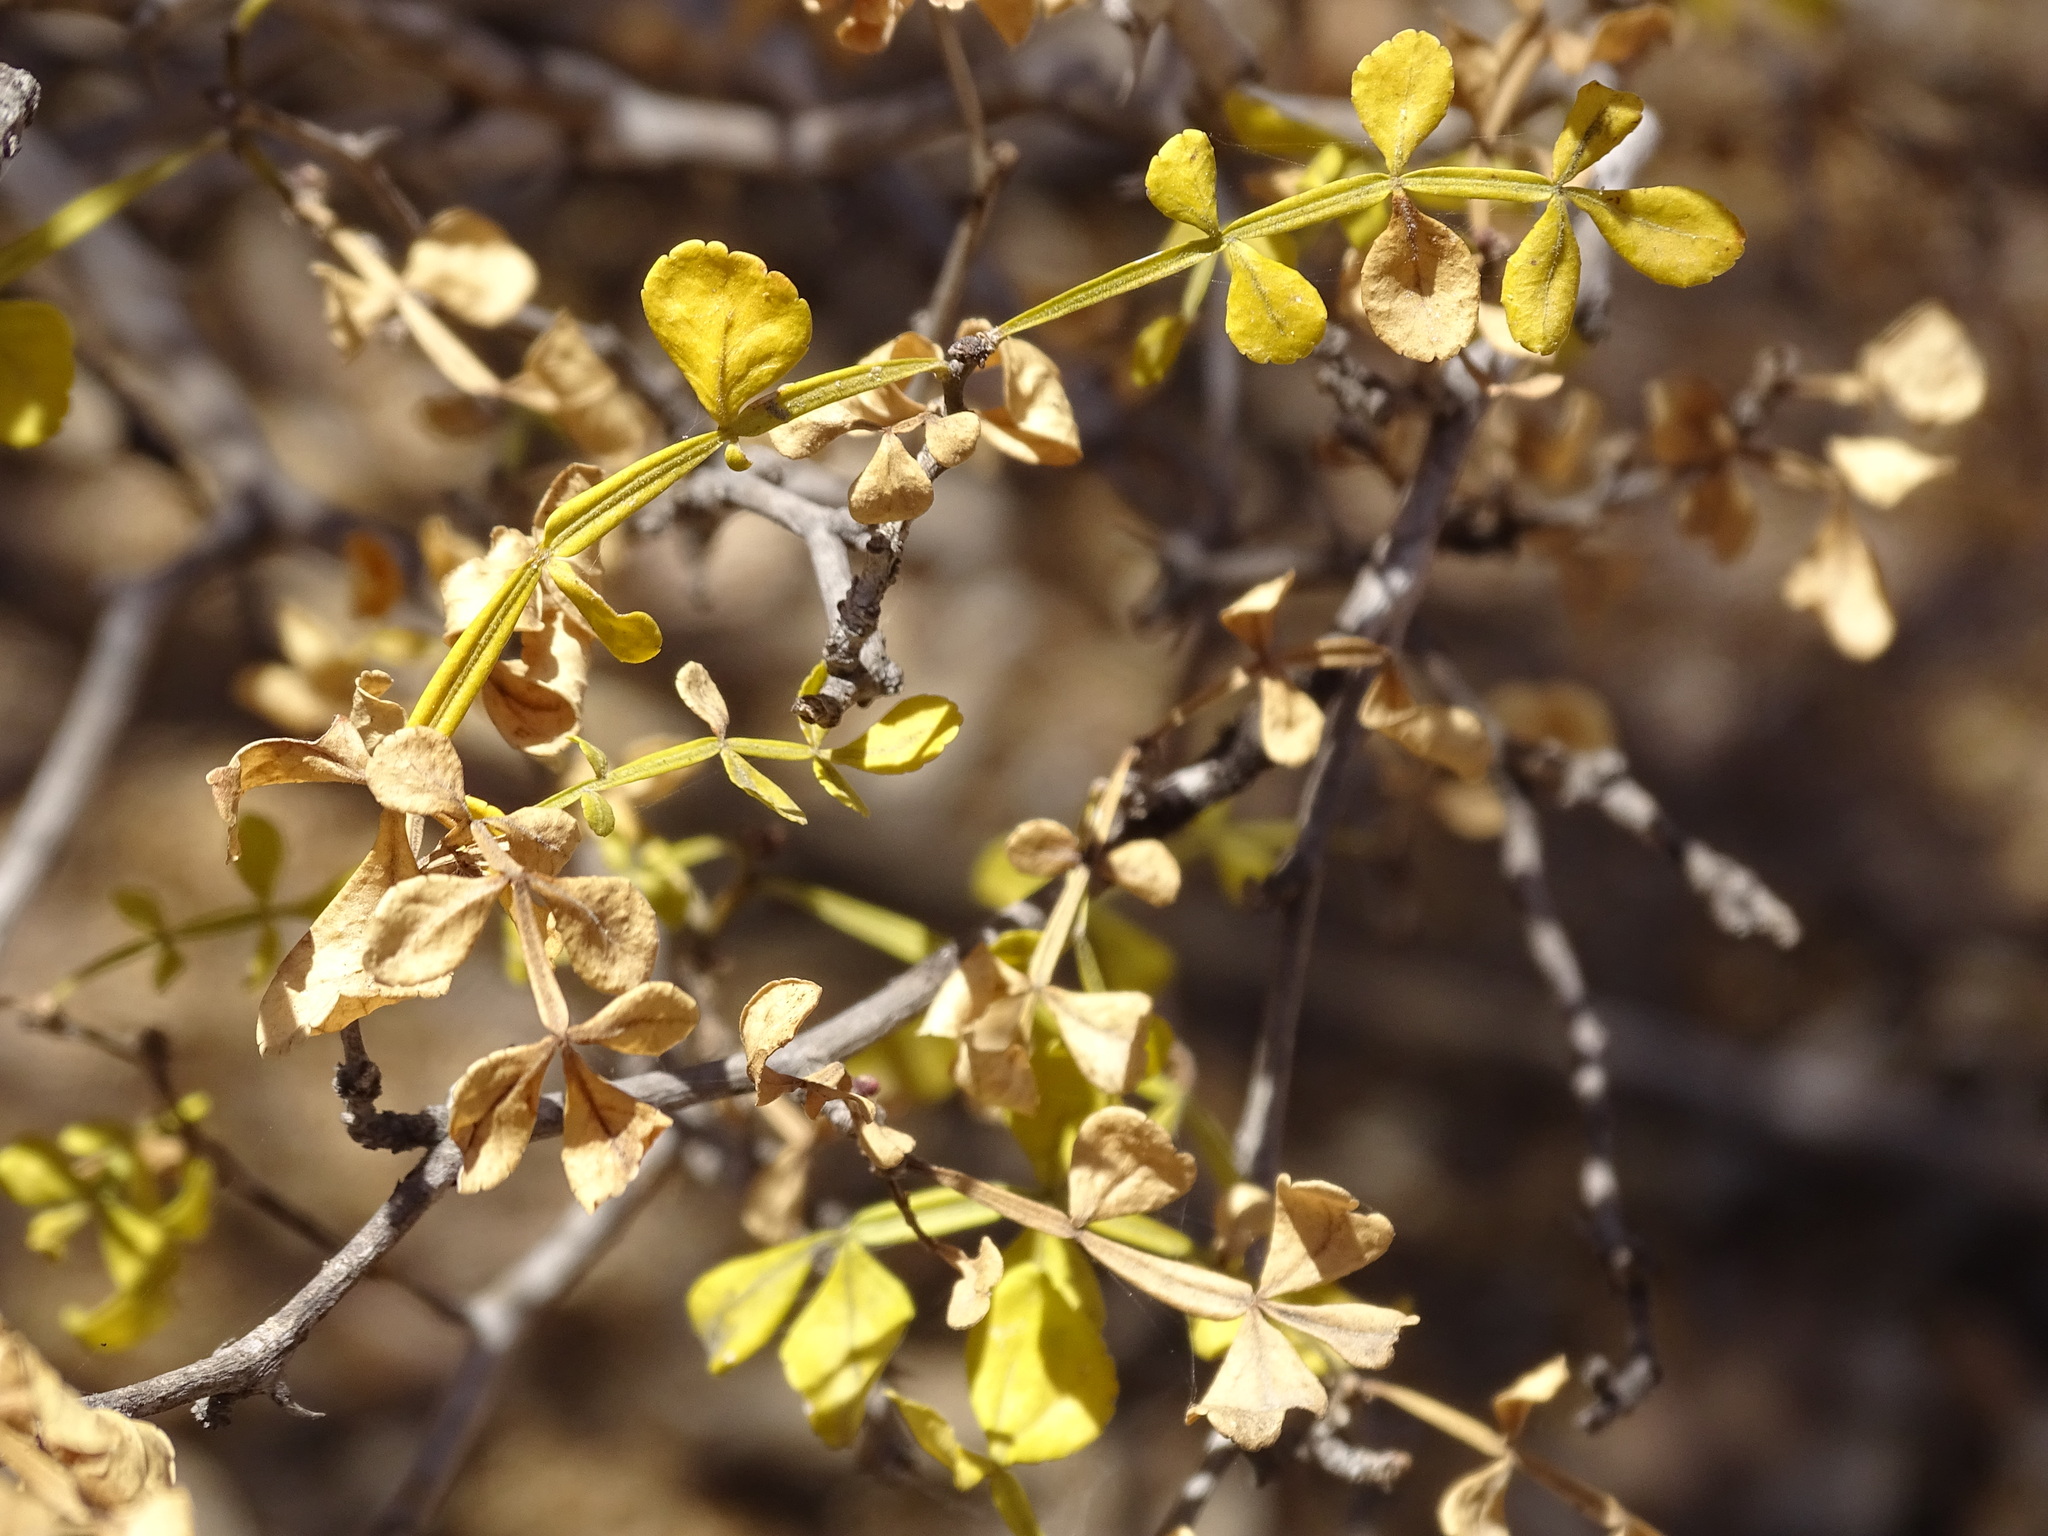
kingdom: Plantae
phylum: Tracheophyta
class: Magnoliopsida
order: Sapindales
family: Rutaceae
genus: Zanthoxylum
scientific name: Zanthoxylum fagara
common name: Lime prickly-ash
